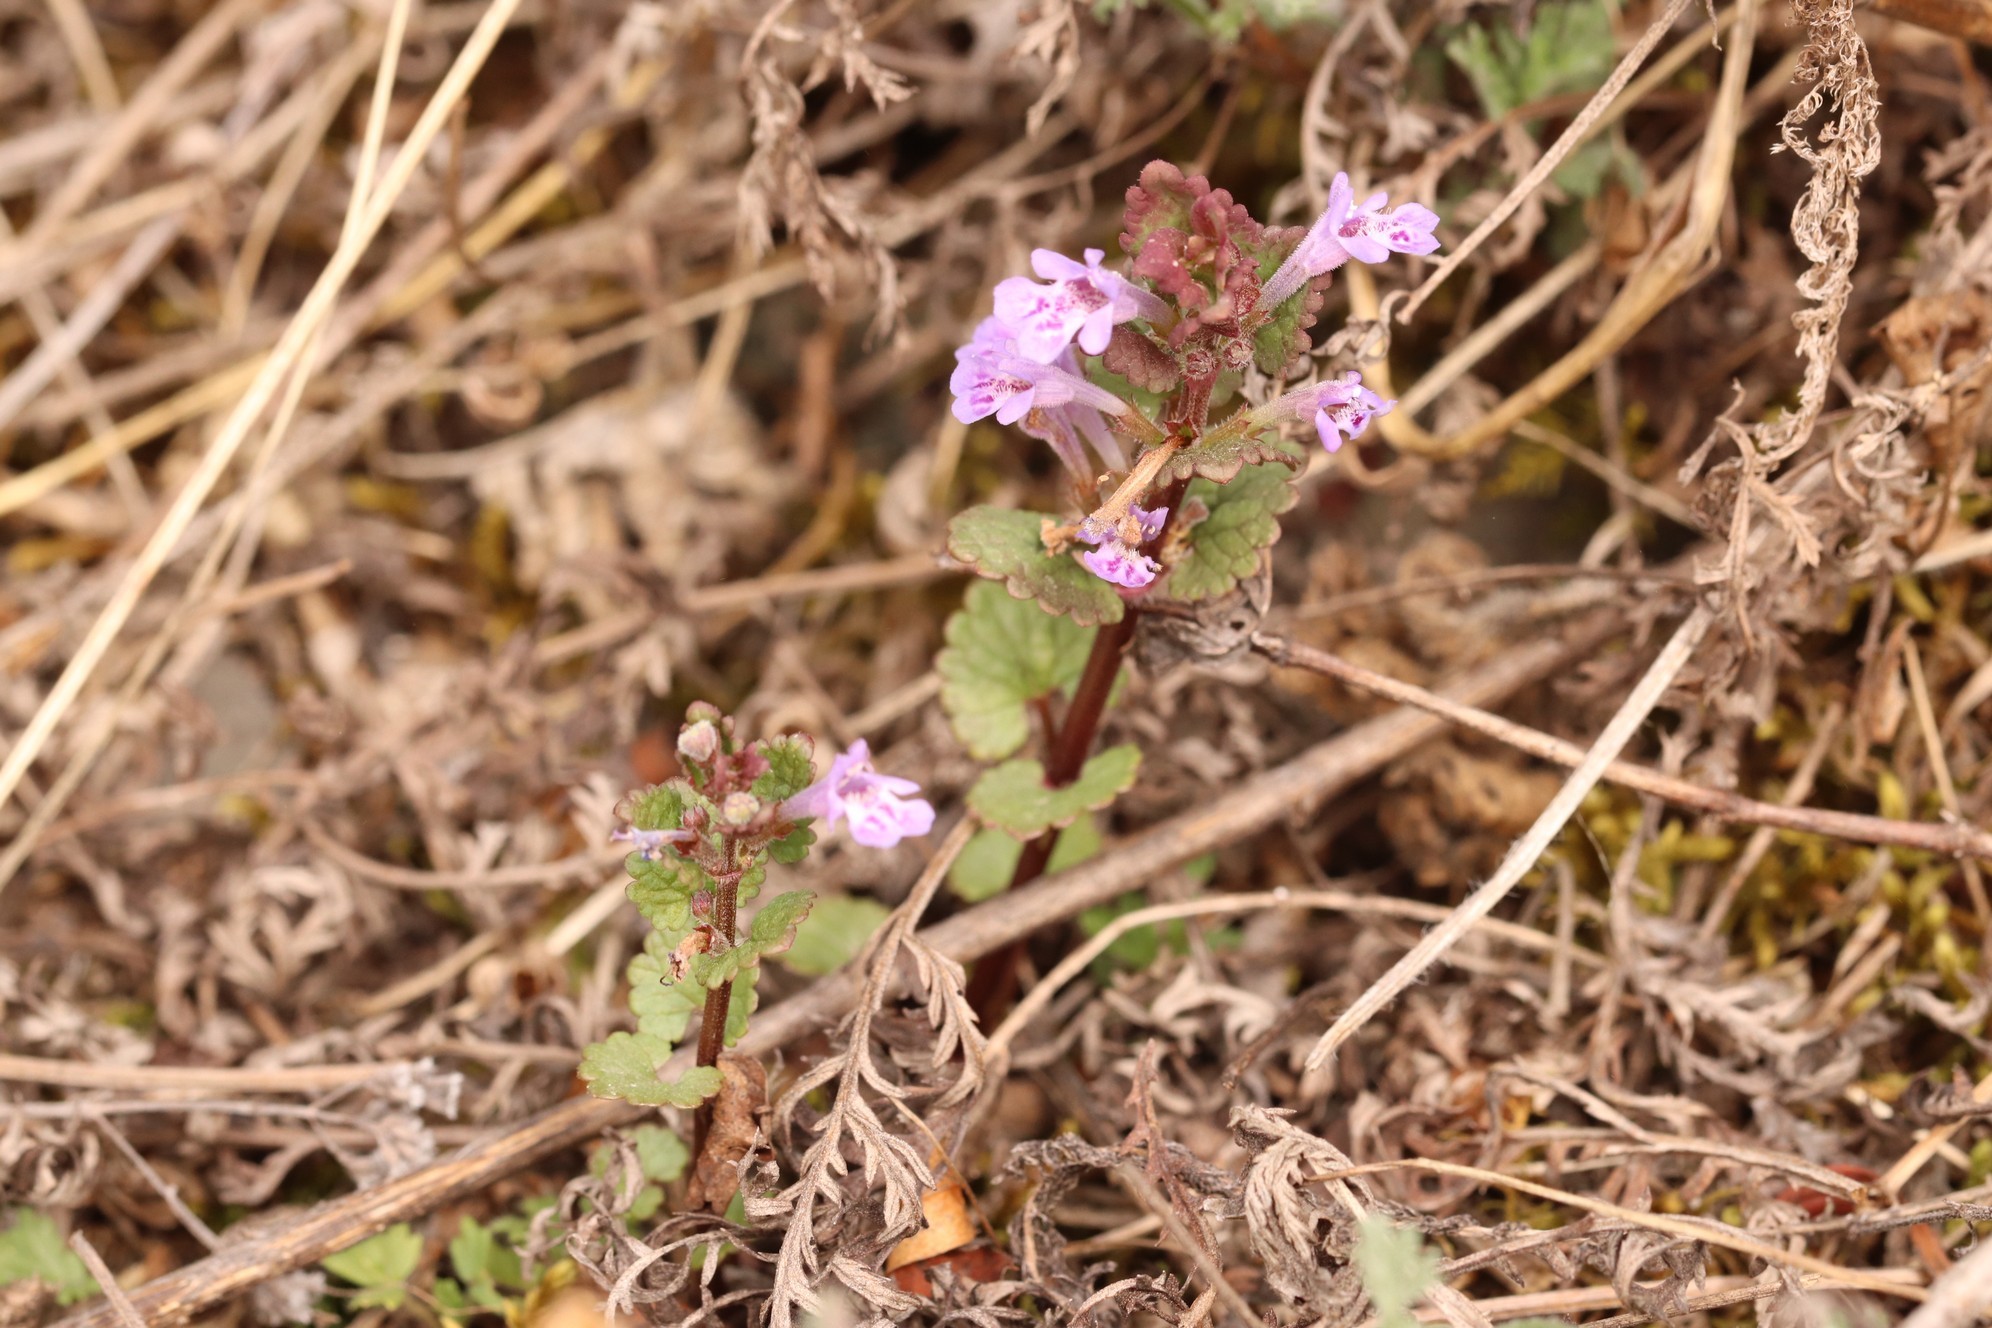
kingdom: Plantae
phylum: Tracheophyta
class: Magnoliopsida
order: Lamiales
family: Lamiaceae
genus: Glechoma
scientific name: Glechoma hederacea
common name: Ground ivy
